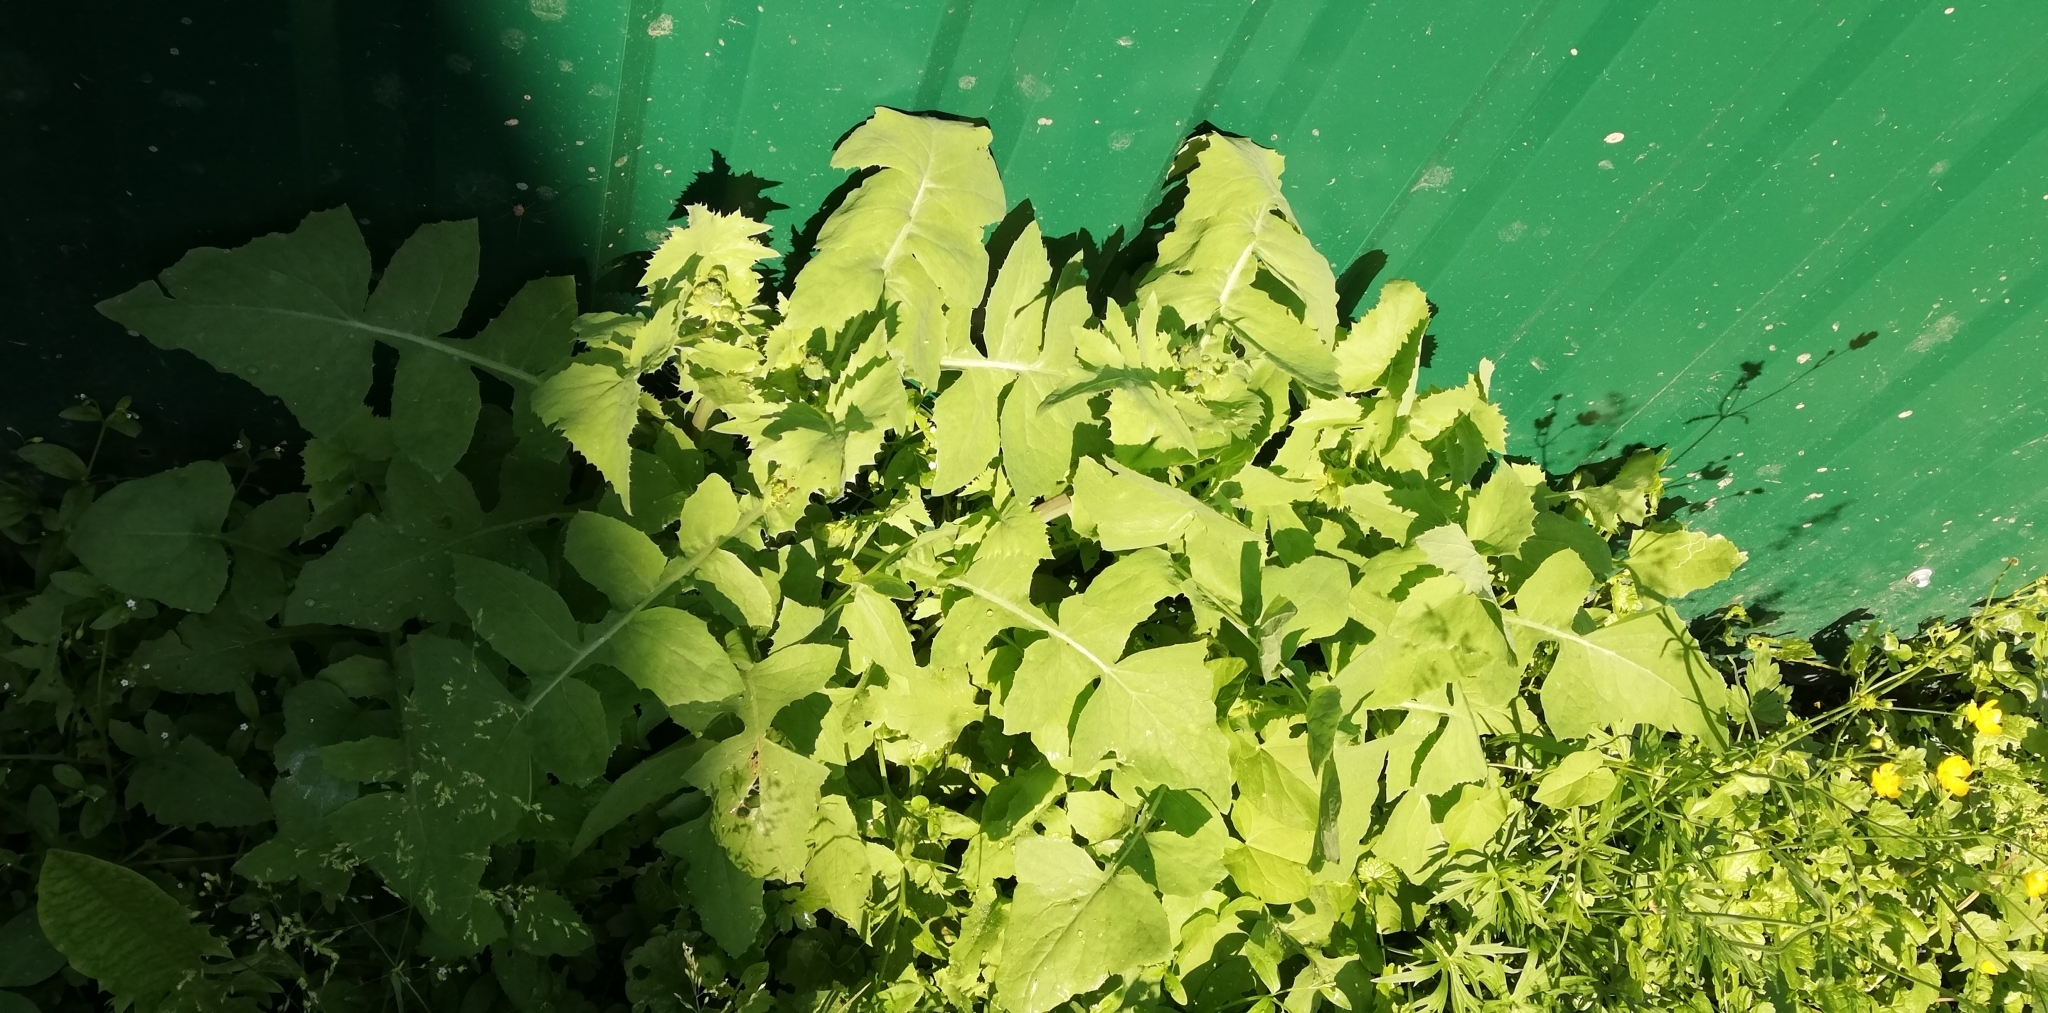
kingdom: Plantae
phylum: Tracheophyta
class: Magnoliopsida
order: Asterales
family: Asteraceae
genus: Sonchus
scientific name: Sonchus oleraceus
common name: Common sowthistle
